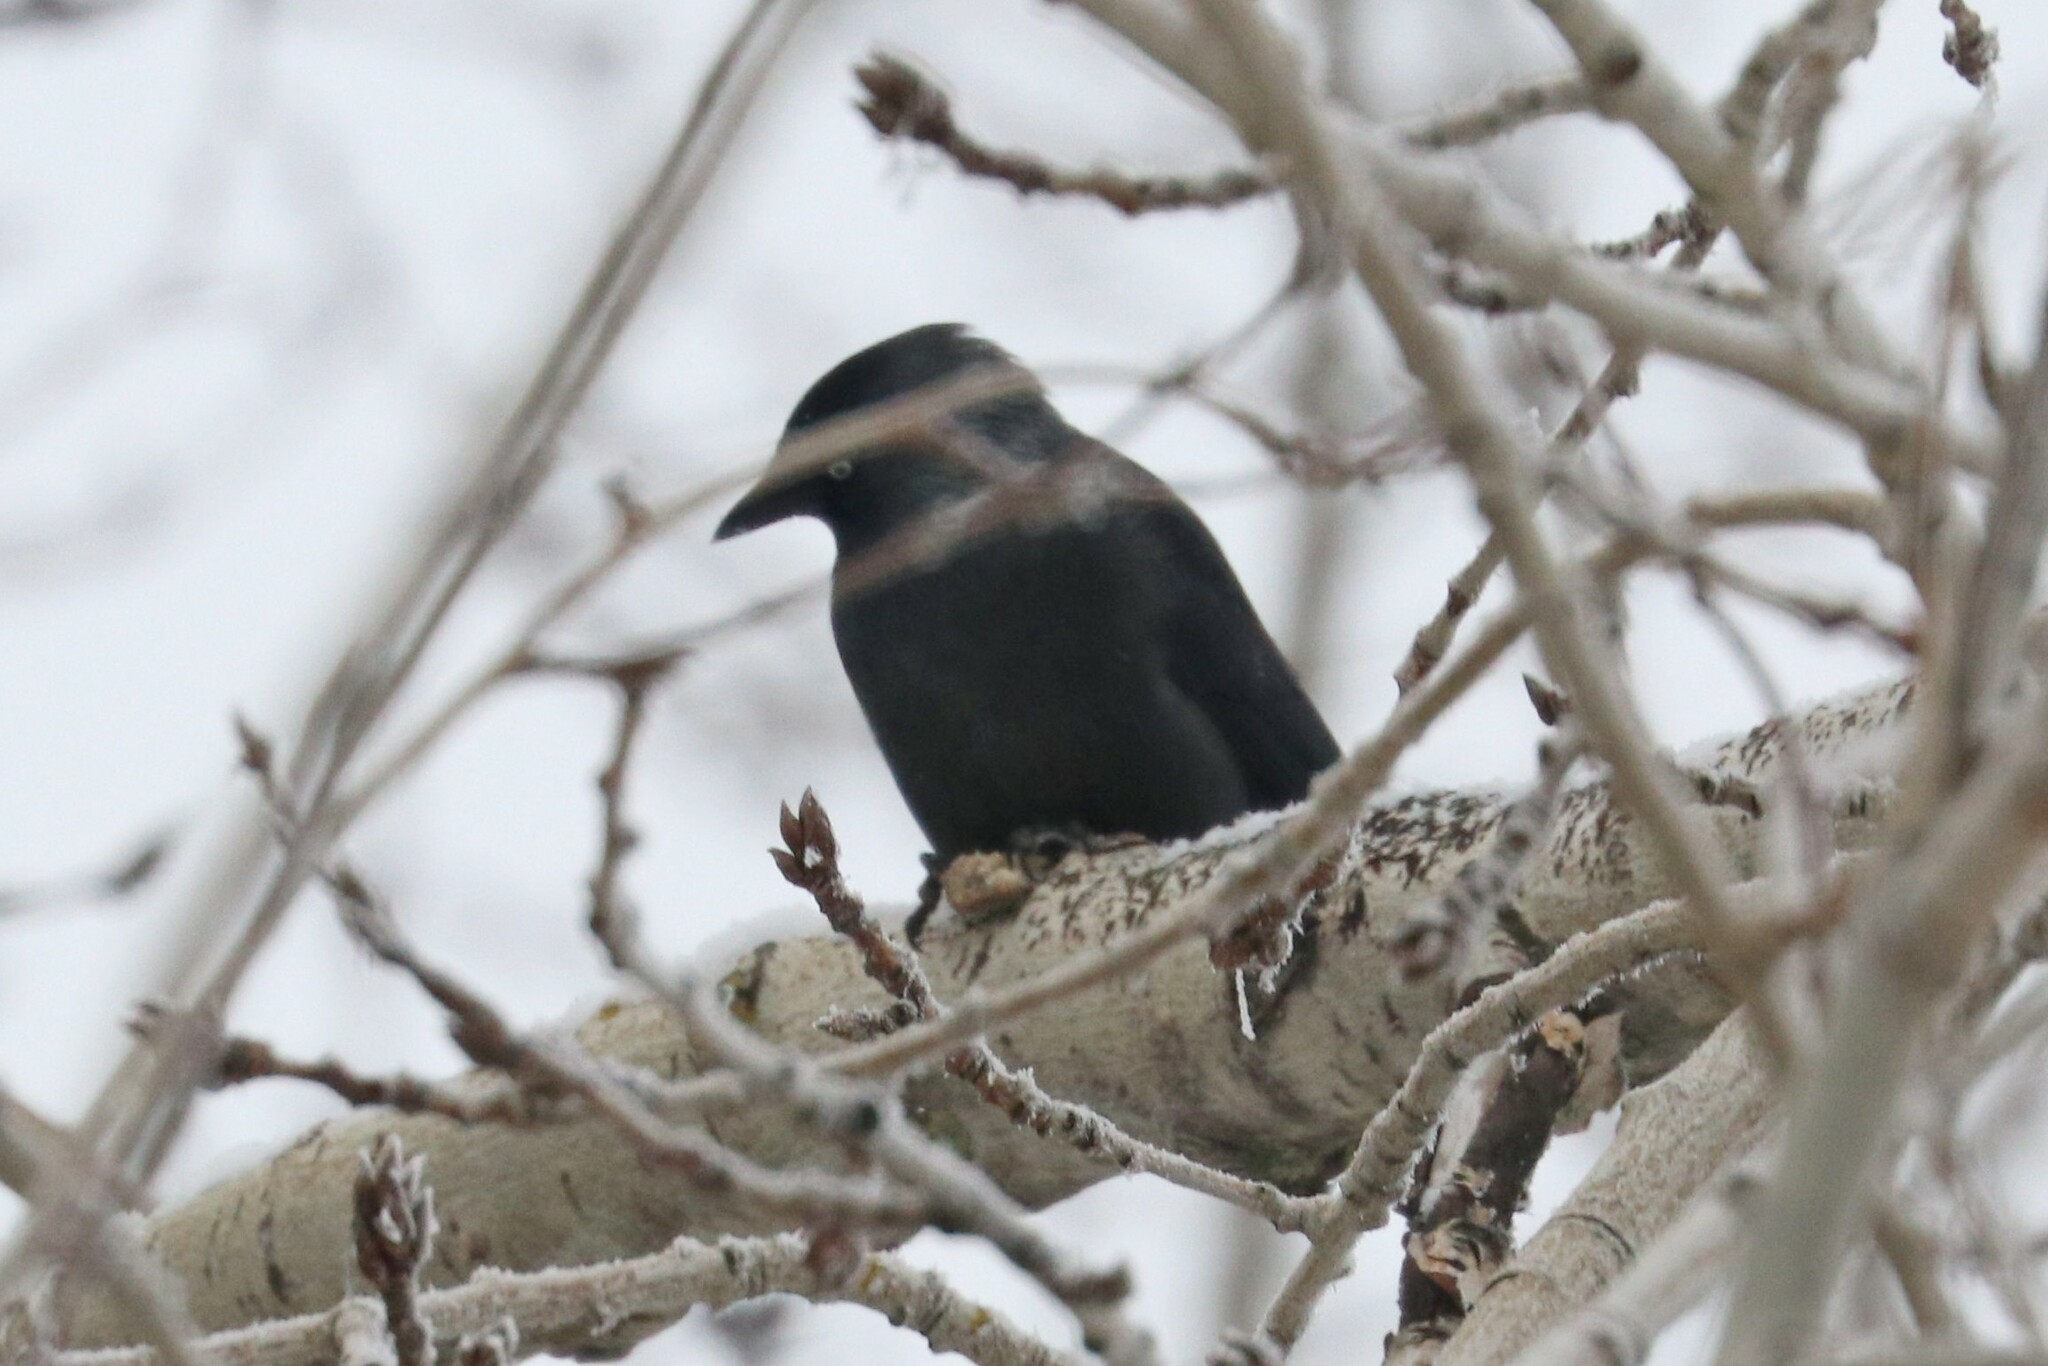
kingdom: Animalia
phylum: Chordata
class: Aves
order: Passeriformes
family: Corvidae
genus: Coloeus
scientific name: Coloeus monedula
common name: Western jackdaw
